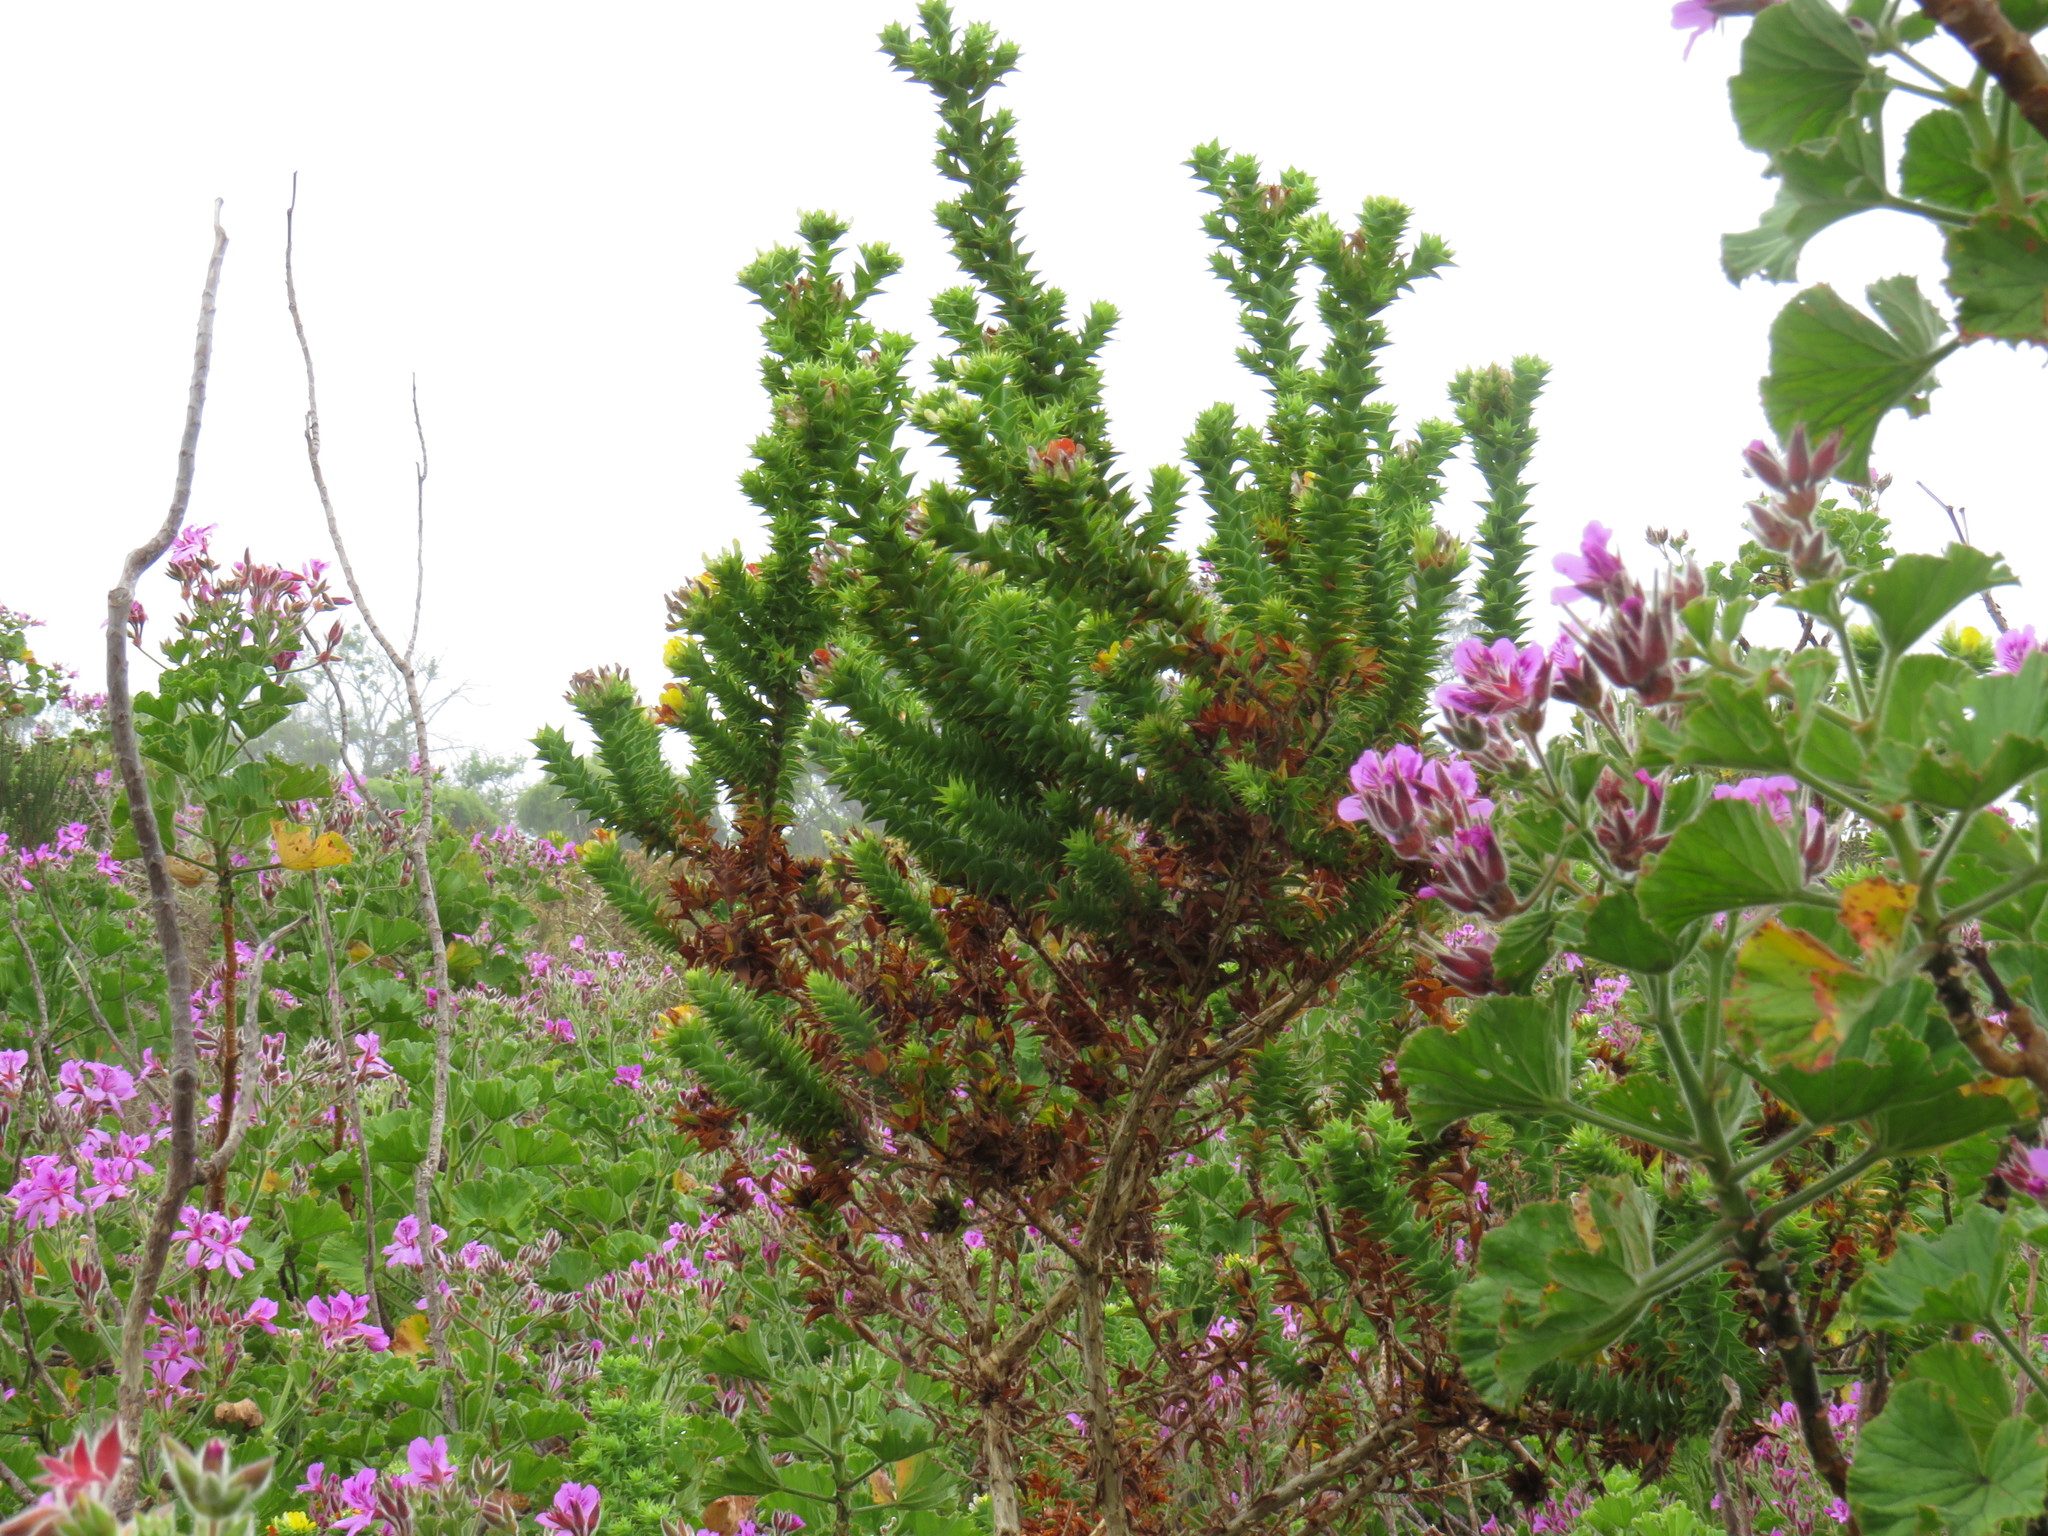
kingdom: Plantae
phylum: Tracheophyta
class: Magnoliopsida
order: Fabales
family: Fabaceae
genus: Aspalathus
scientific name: Aspalathus cordata
